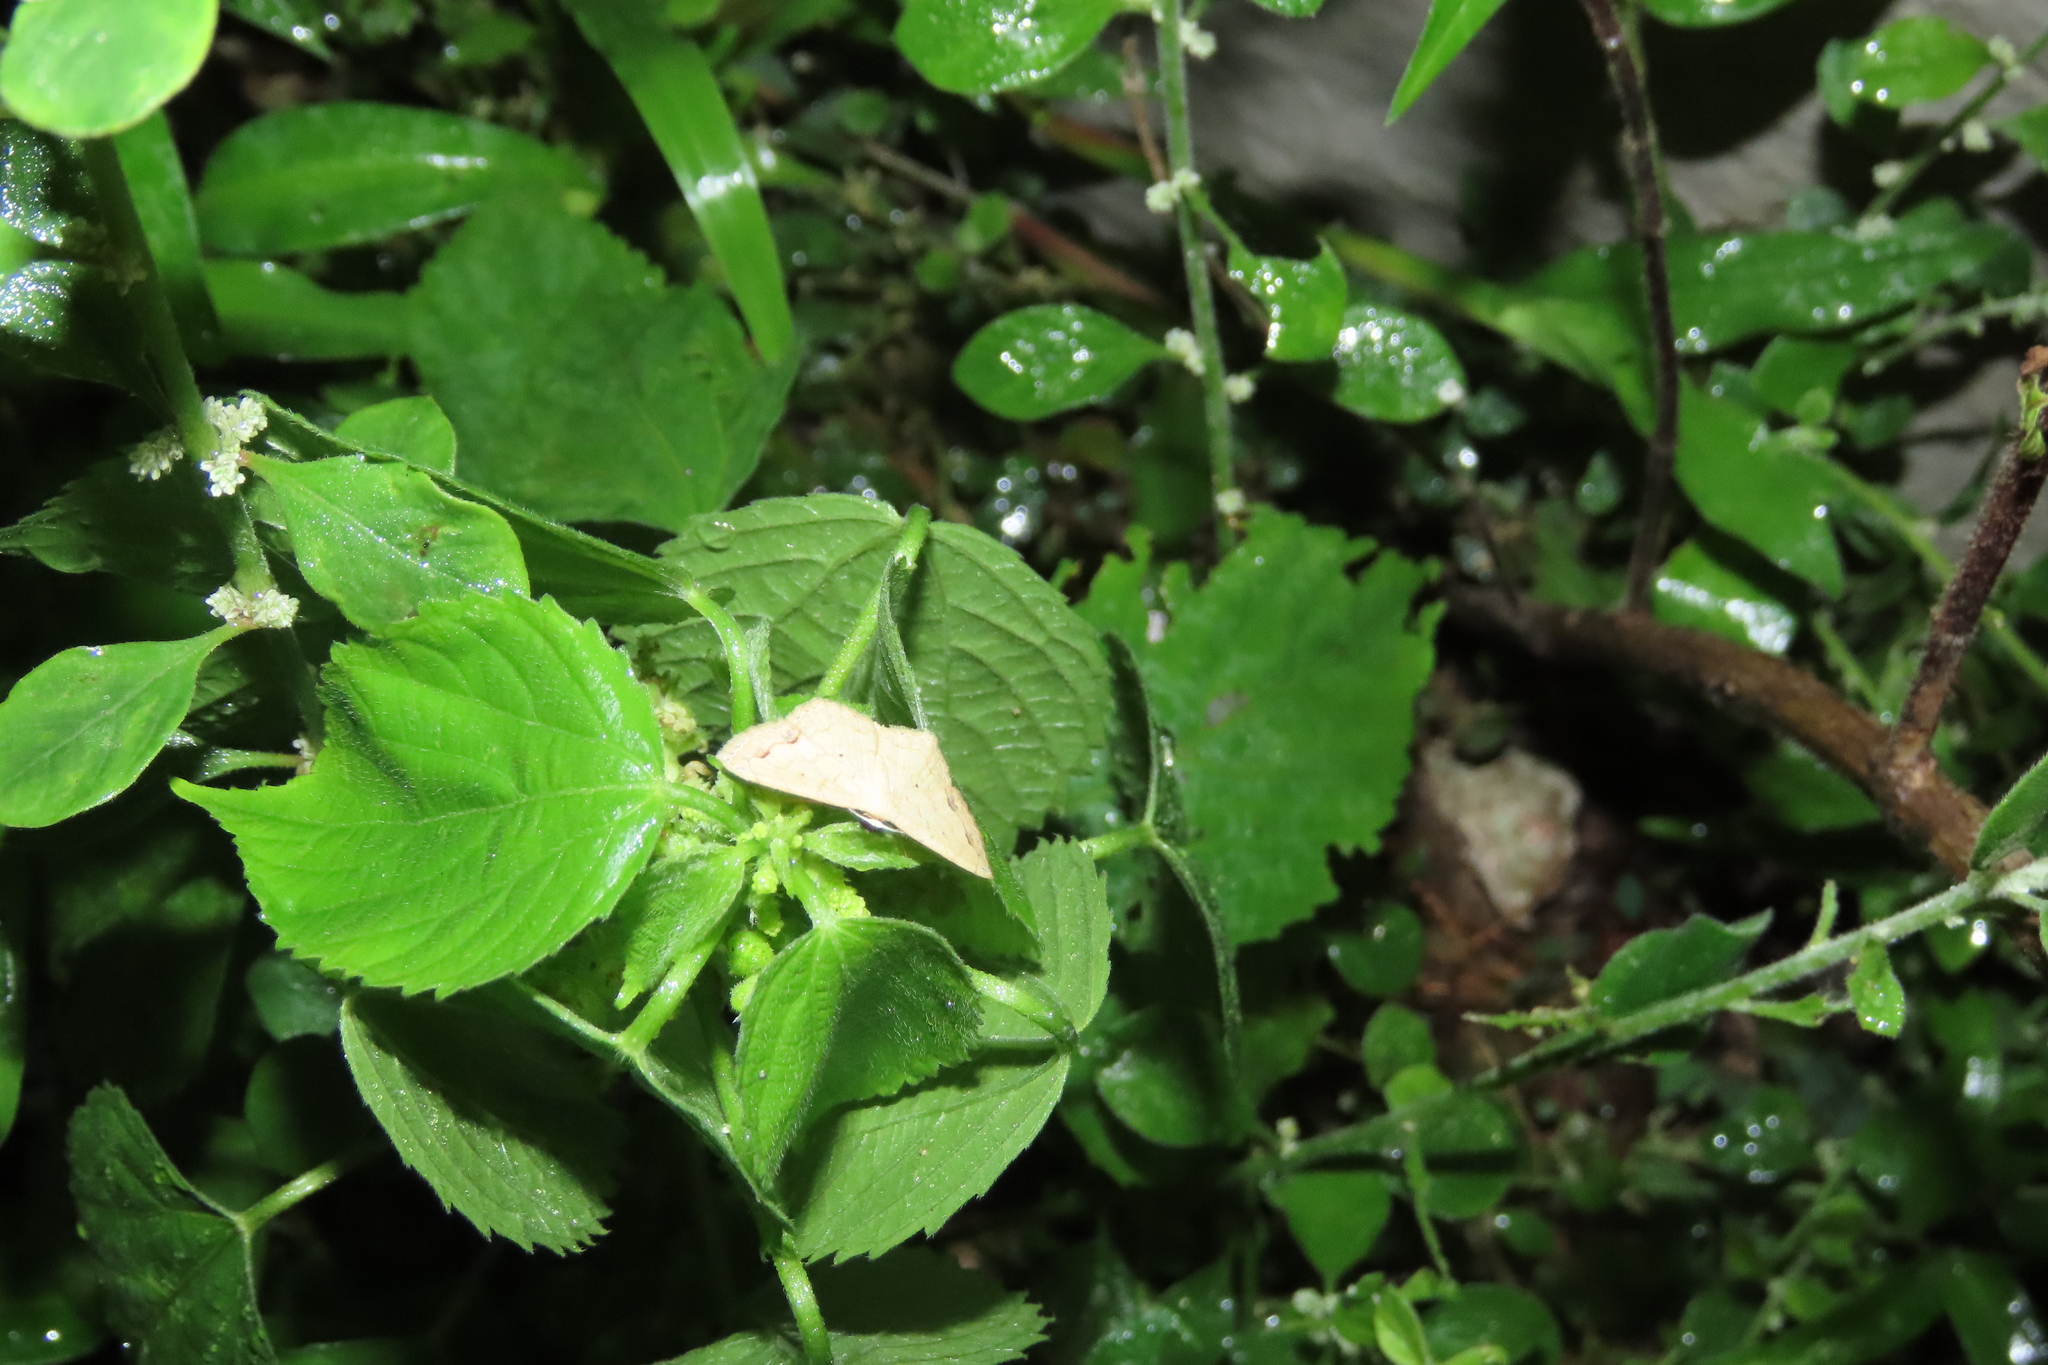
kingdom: Animalia
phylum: Arthropoda
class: Insecta
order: Lepidoptera
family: Geometridae
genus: Craspediopsis
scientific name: Craspediopsis bimaculata
